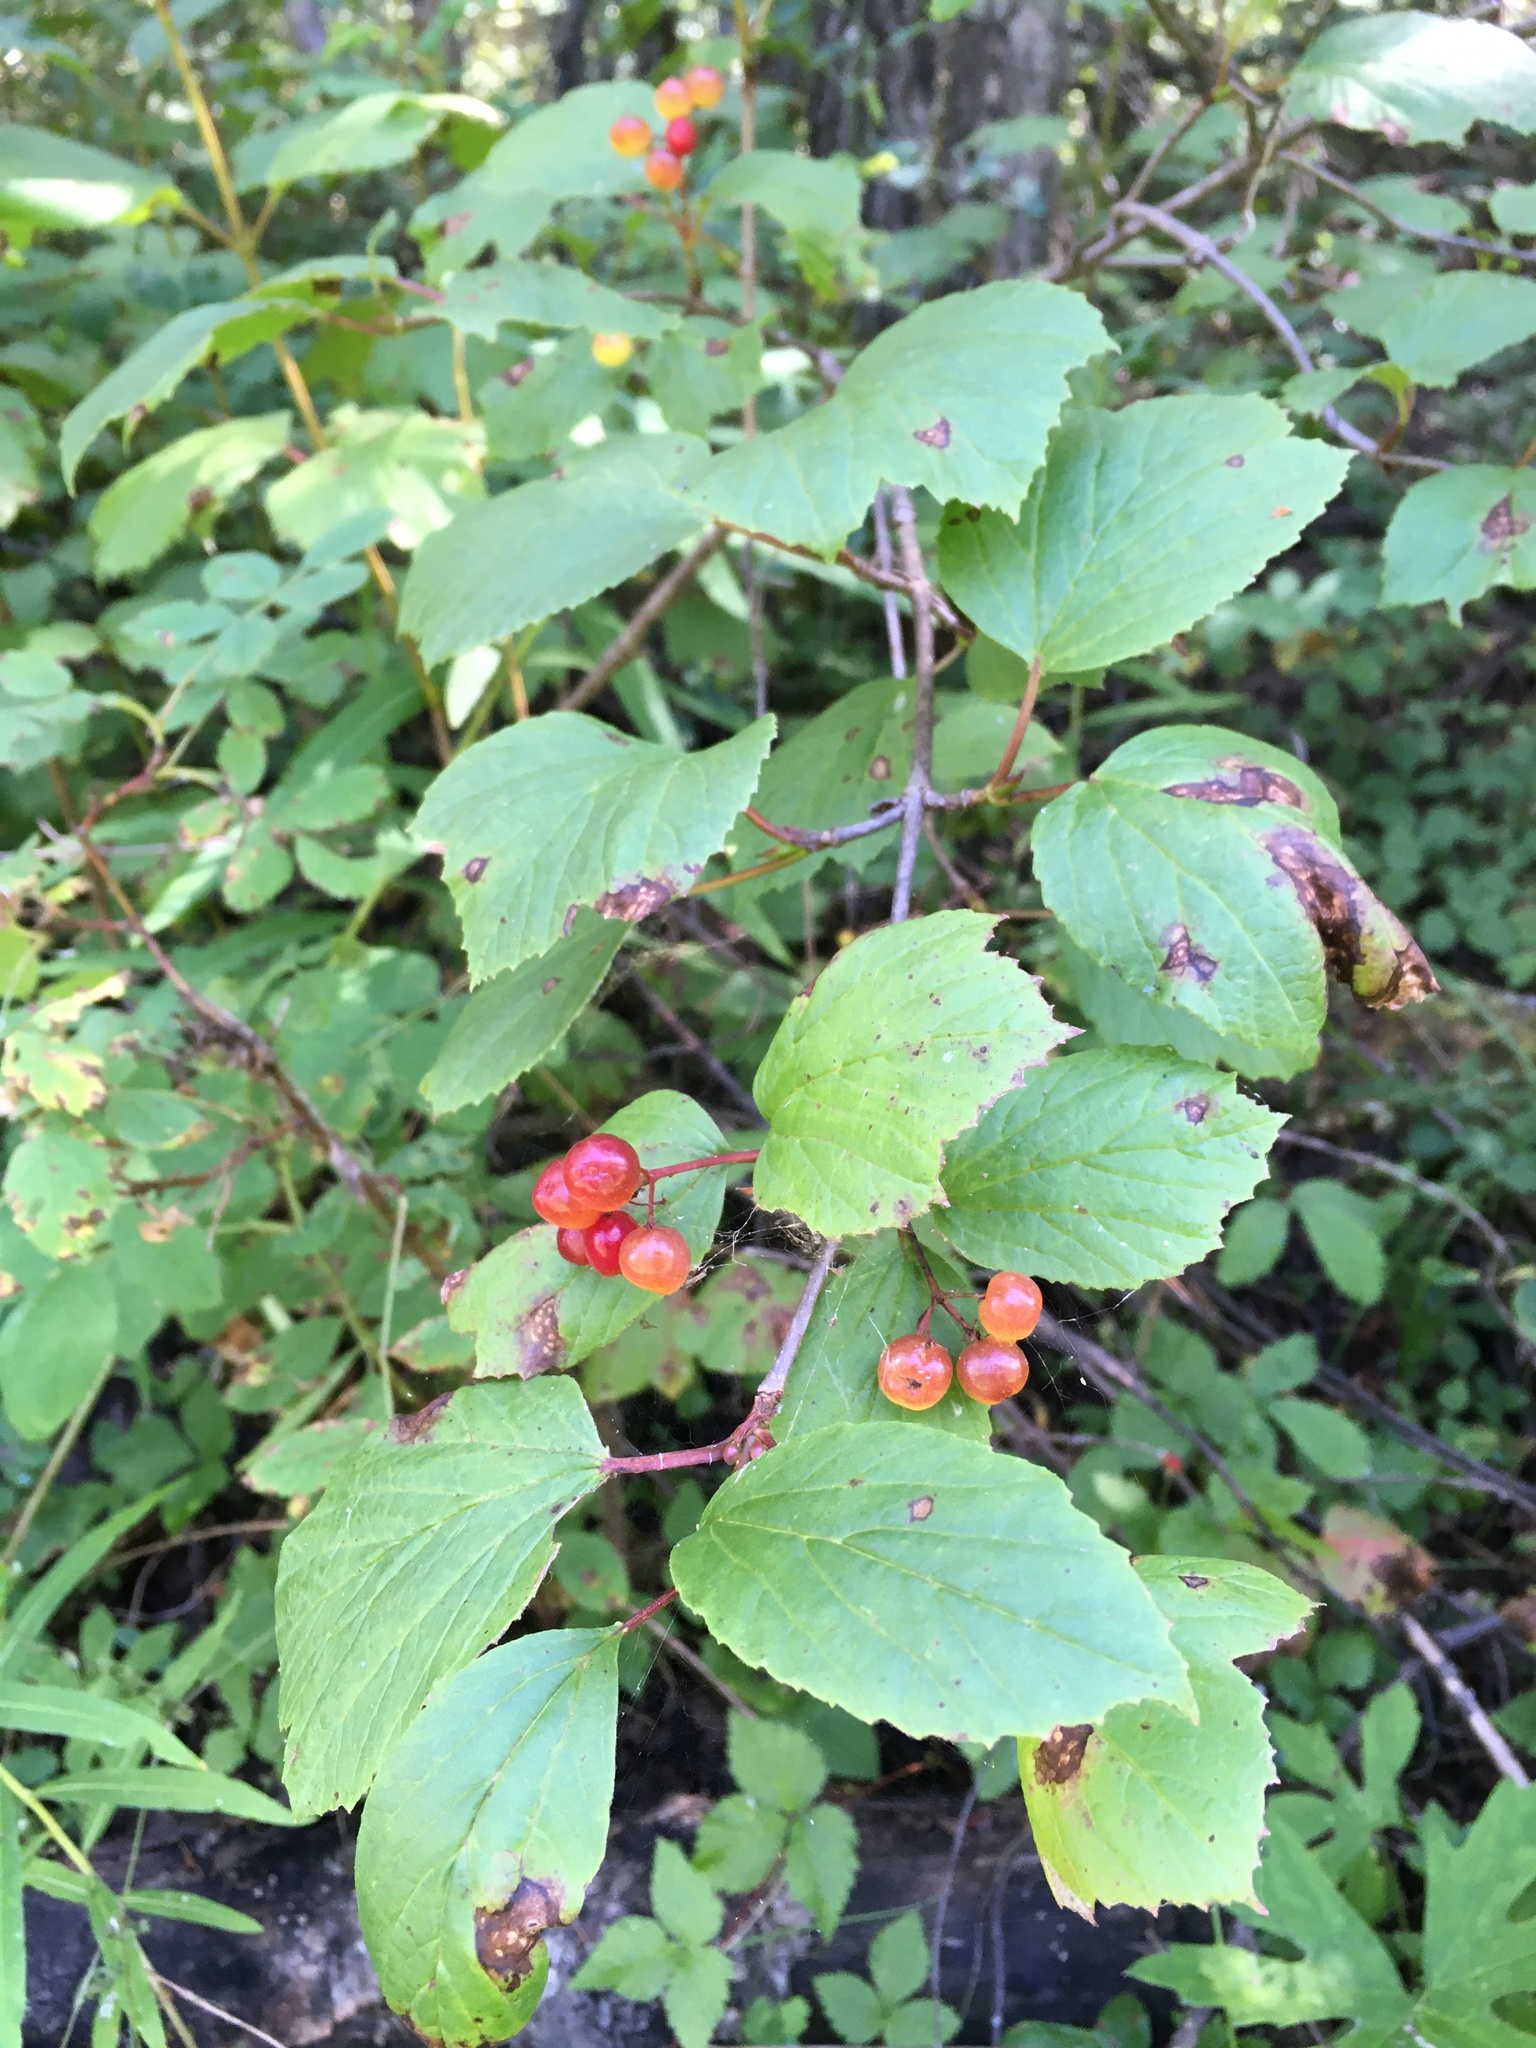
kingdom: Plantae
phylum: Tracheophyta
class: Magnoliopsida
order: Dipsacales
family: Viburnaceae
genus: Viburnum
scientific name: Viburnum edule
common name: Mooseberry
